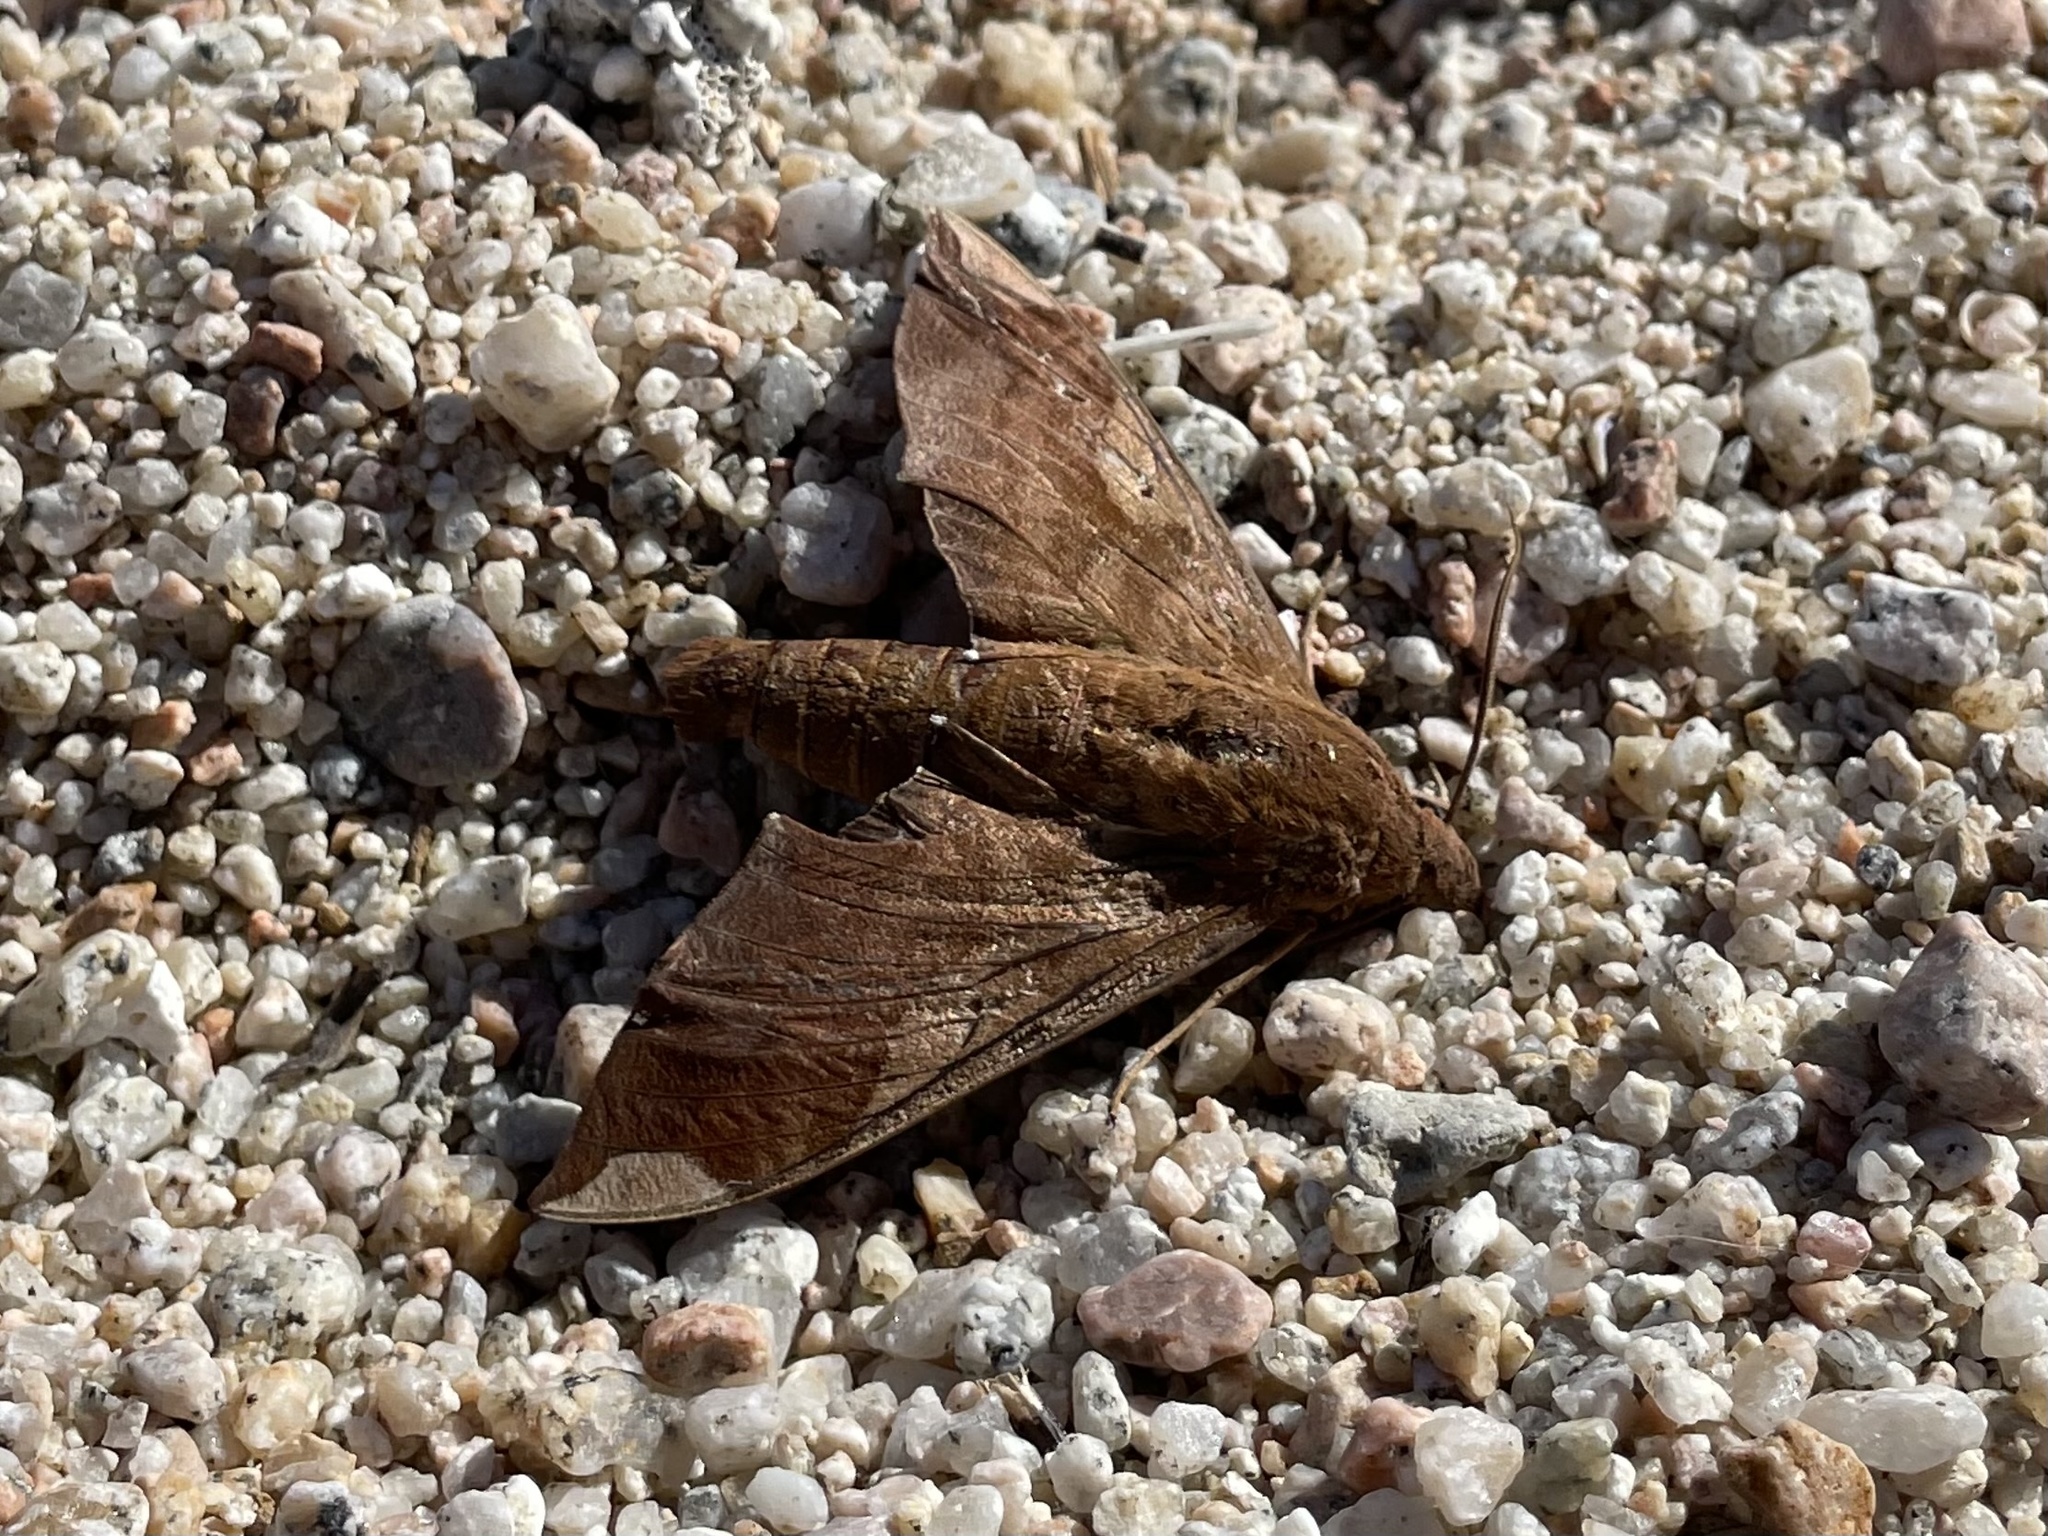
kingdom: Animalia
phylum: Arthropoda
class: Insecta
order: Lepidoptera
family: Sphingidae
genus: Pachylia
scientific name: Pachylia syces
